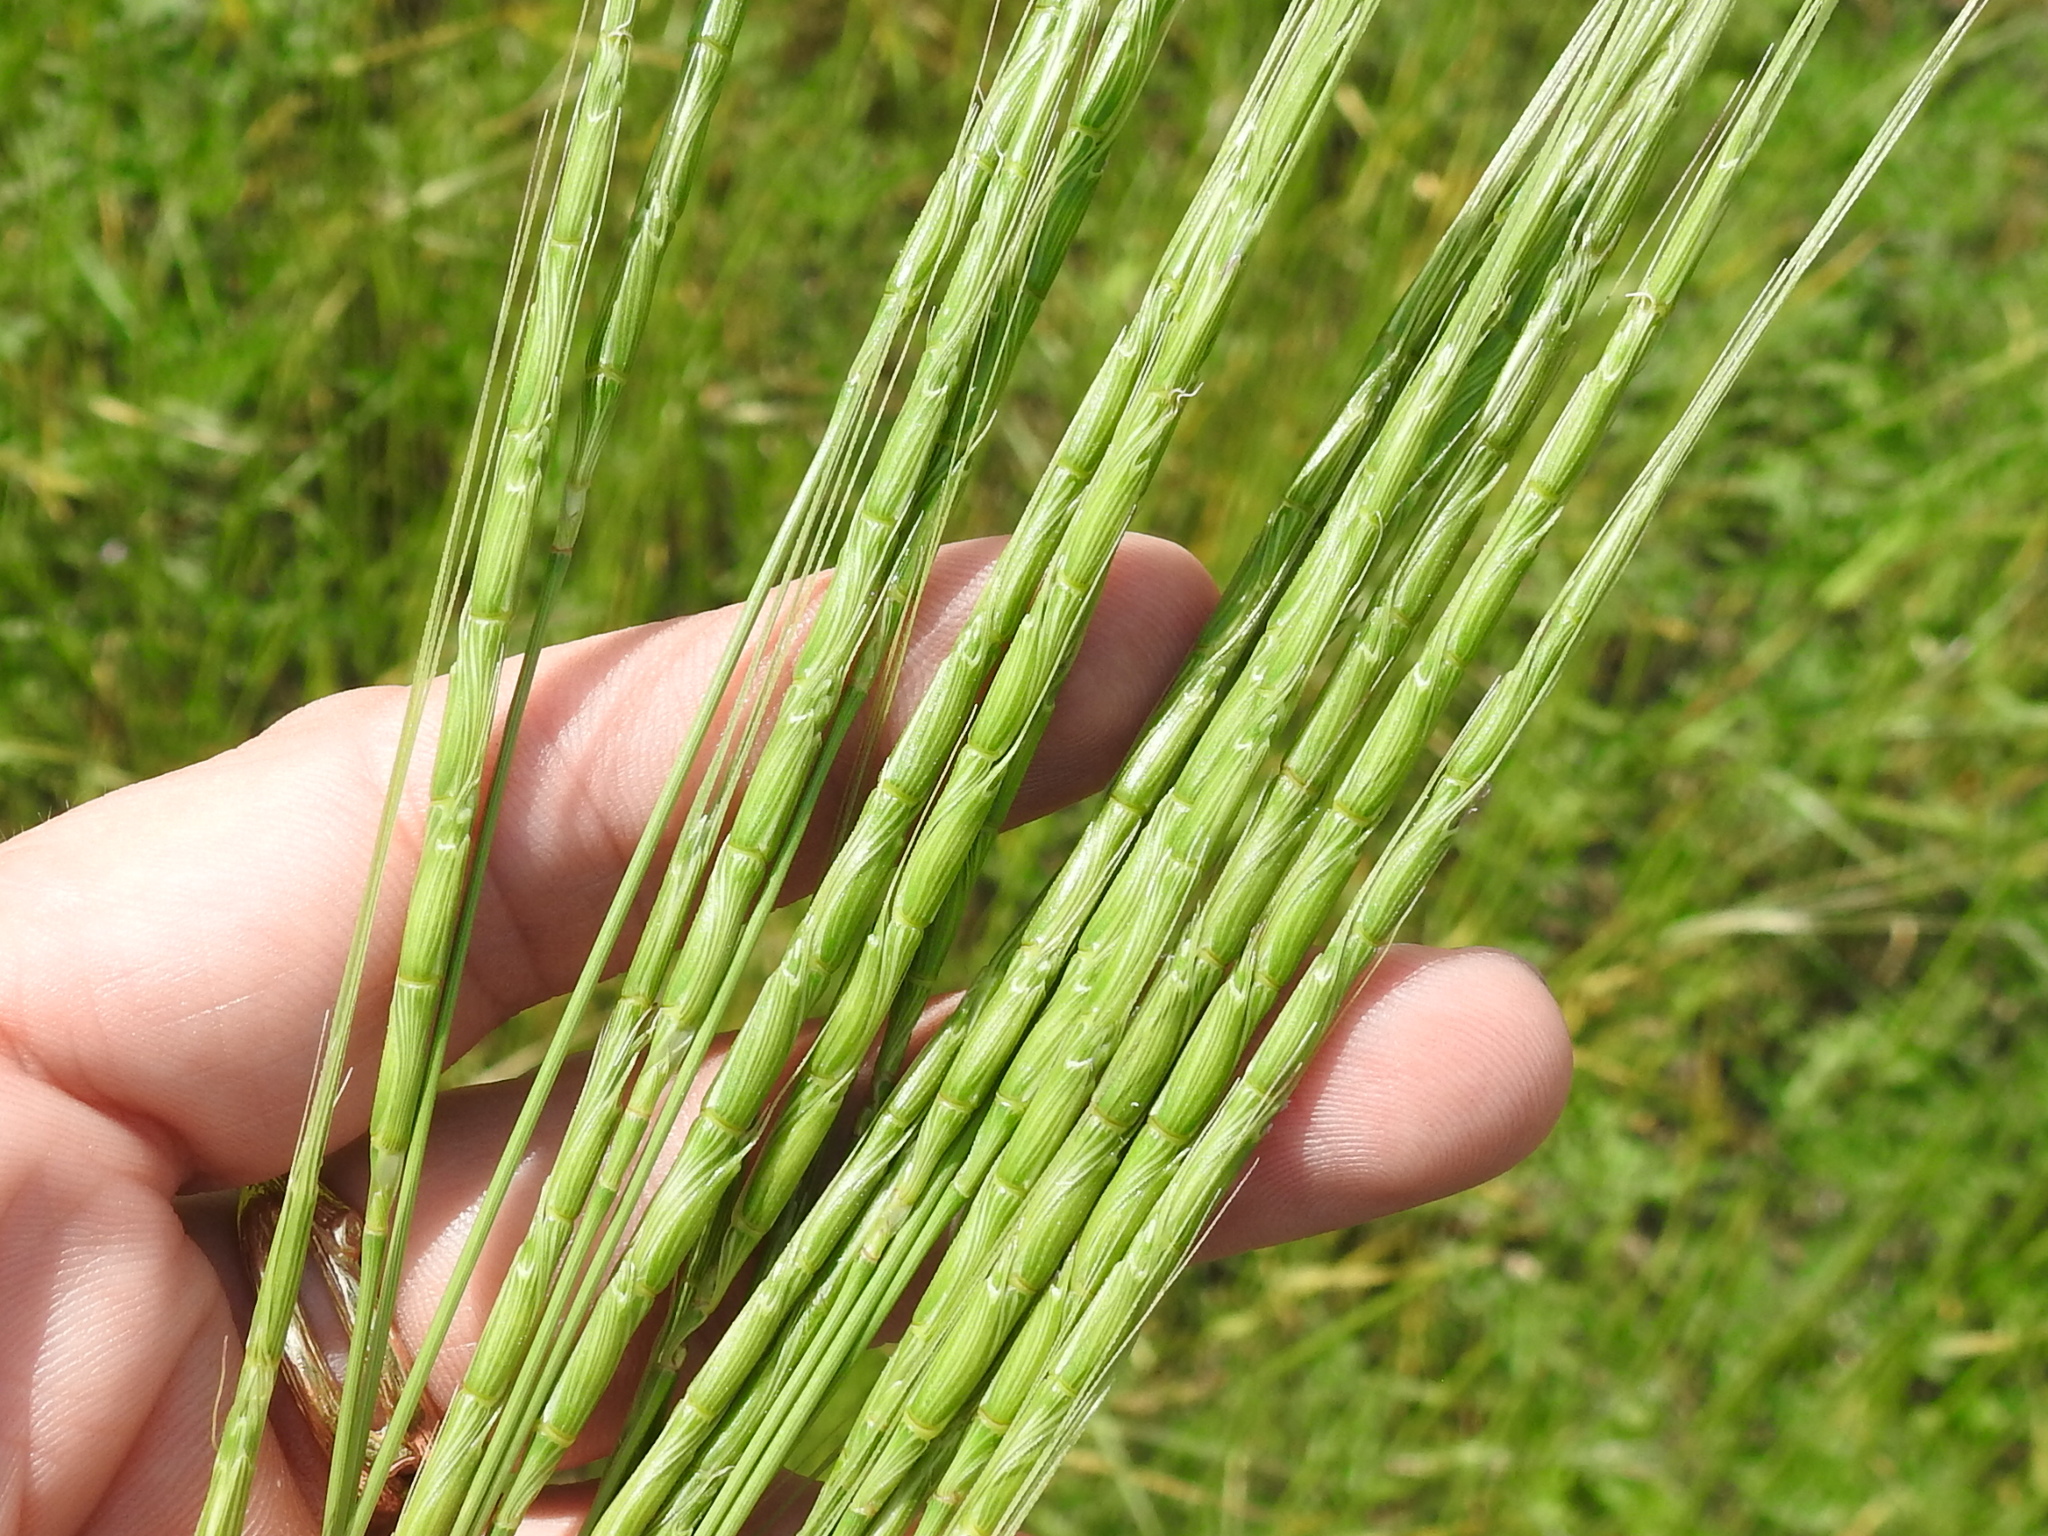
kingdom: Plantae
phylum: Tracheophyta
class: Liliopsida
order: Poales
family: Poaceae
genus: Aegilops
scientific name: Aegilops cylindrica
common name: Jointed goatgrass
